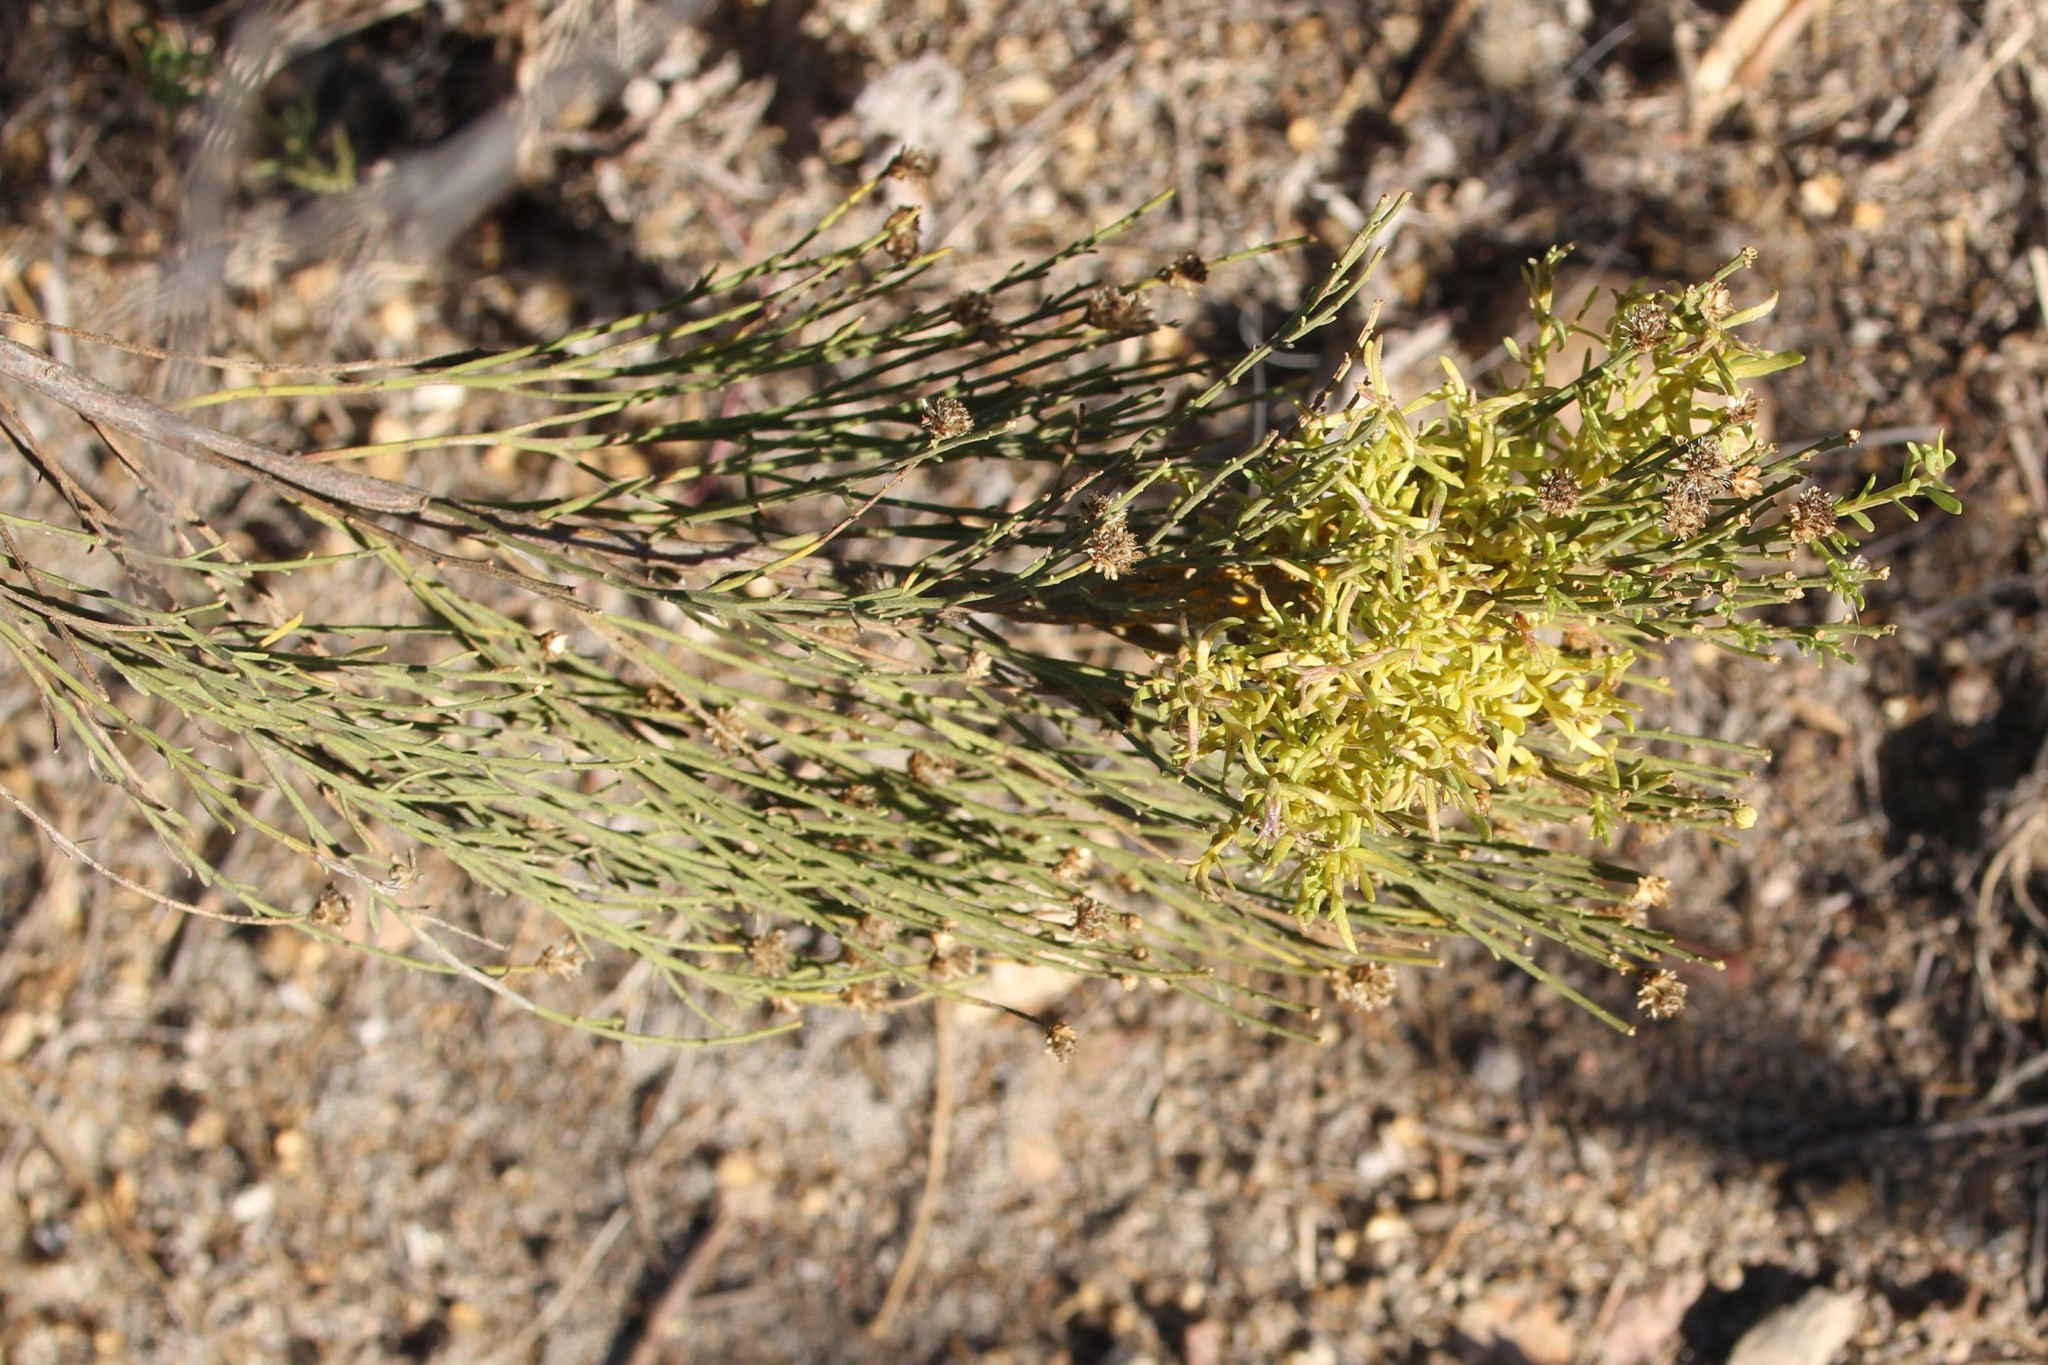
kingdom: Plantae
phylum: Tracheophyta
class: Magnoliopsida
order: Asterales
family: Asteraceae
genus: Baccharis
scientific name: Baccharis sarothroides
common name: Desert-broom
